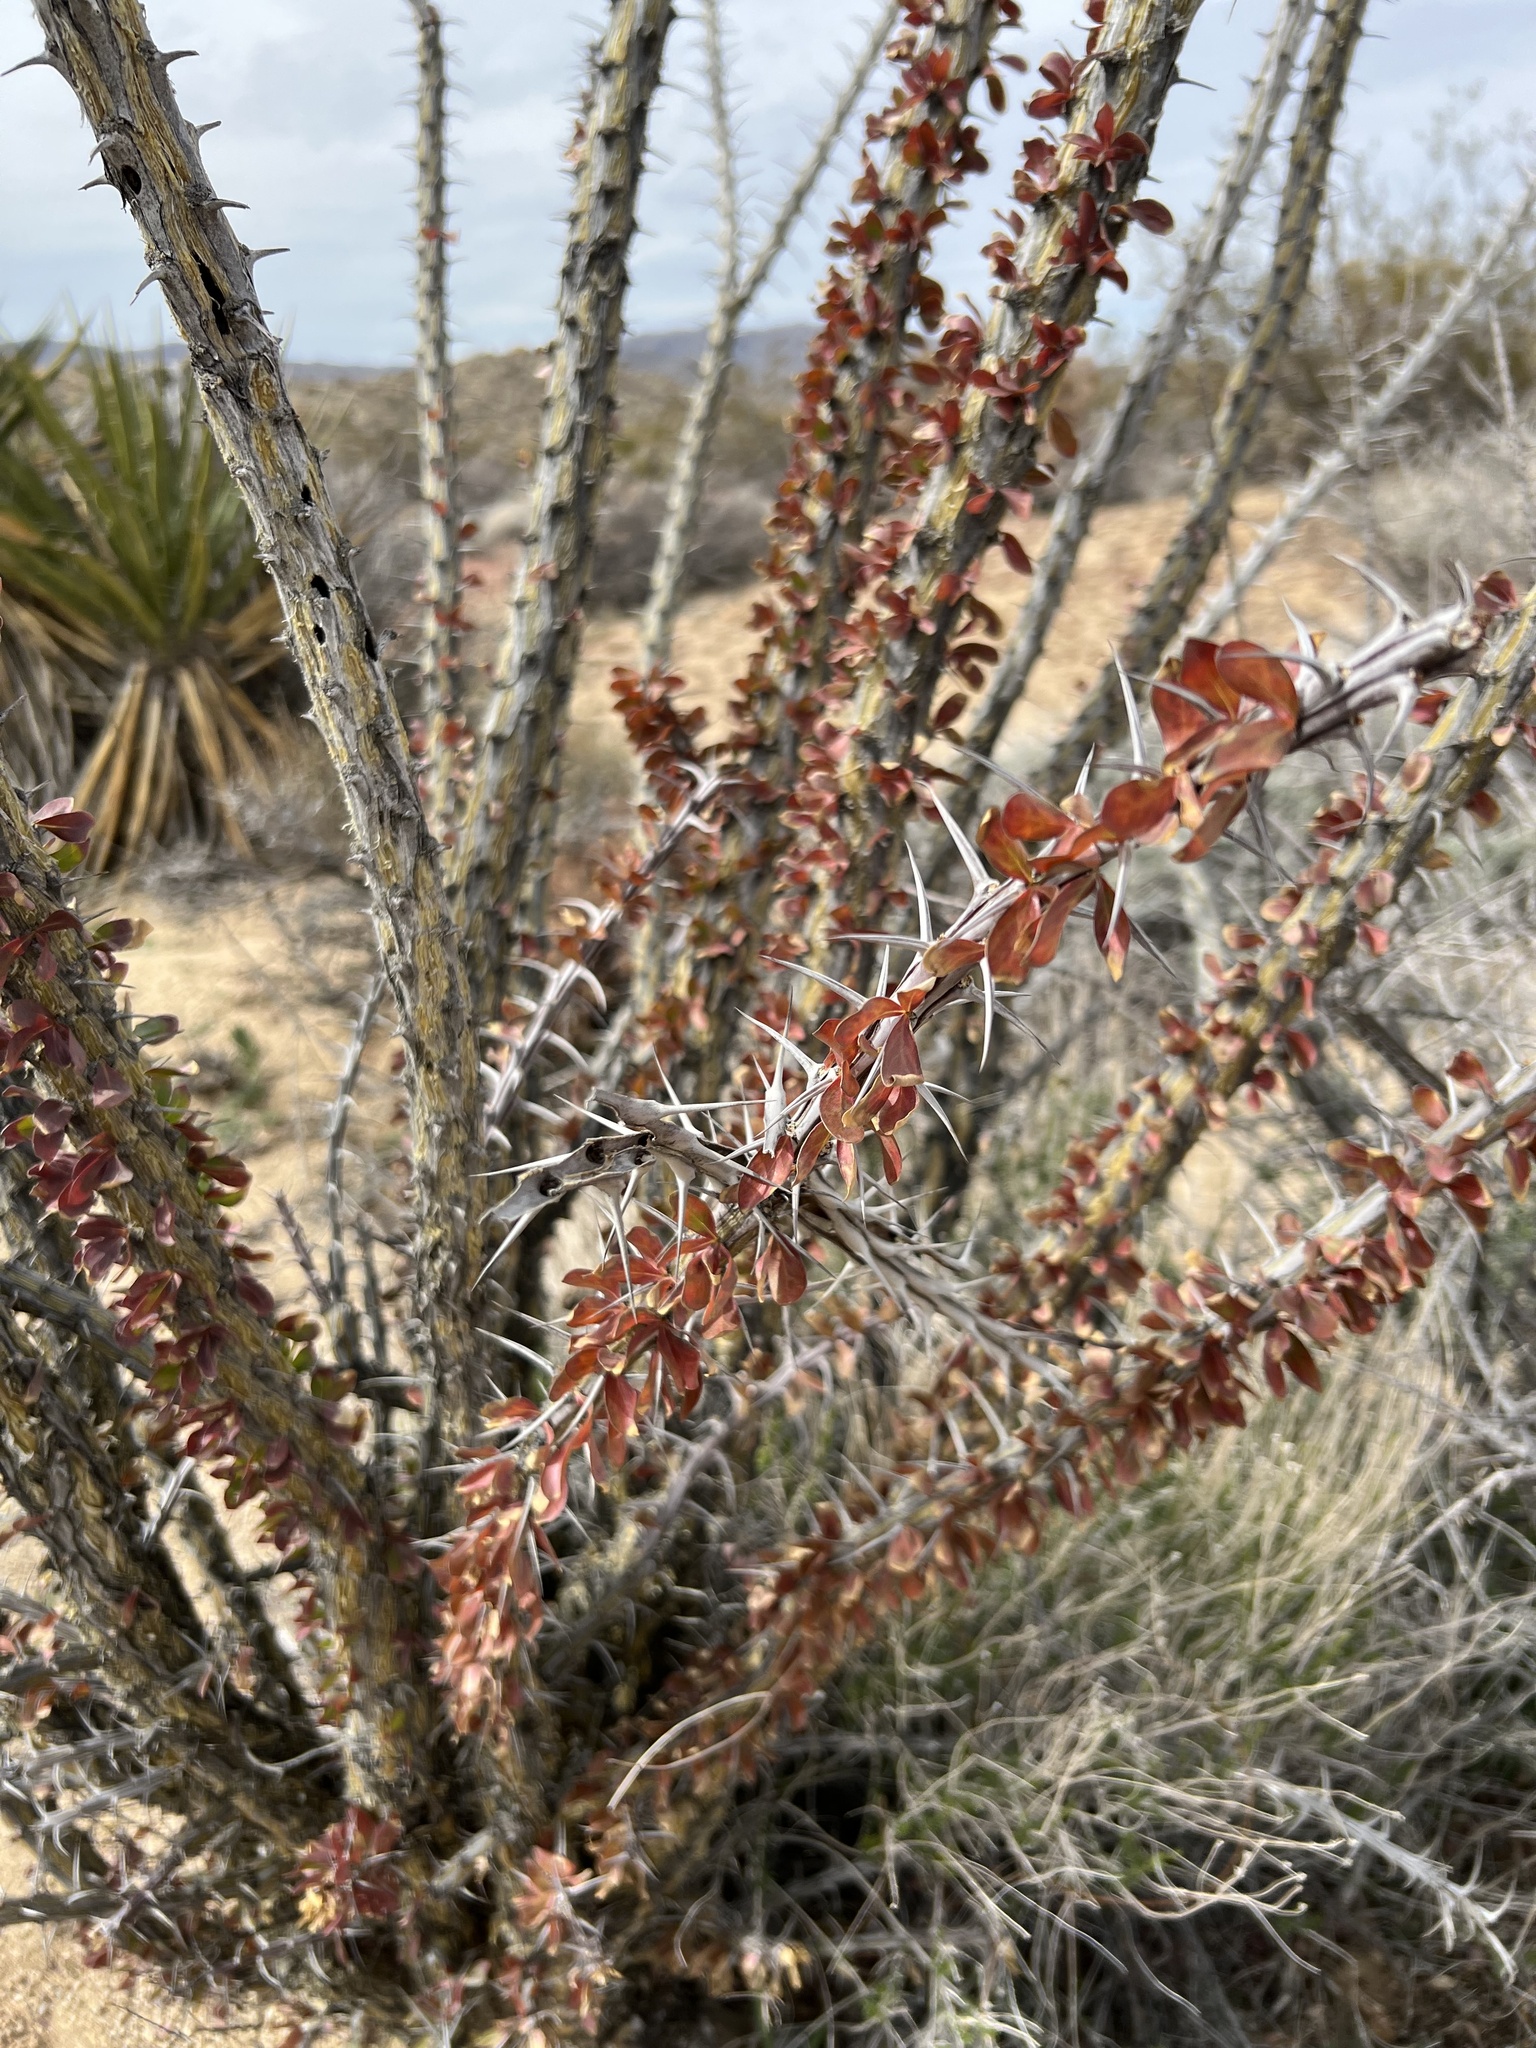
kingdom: Plantae
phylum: Tracheophyta
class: Magnoliopsida
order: Ericales
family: Fouquieriaceae
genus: Fouquieria
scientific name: Fouquieria splendens
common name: Vine-cactus
